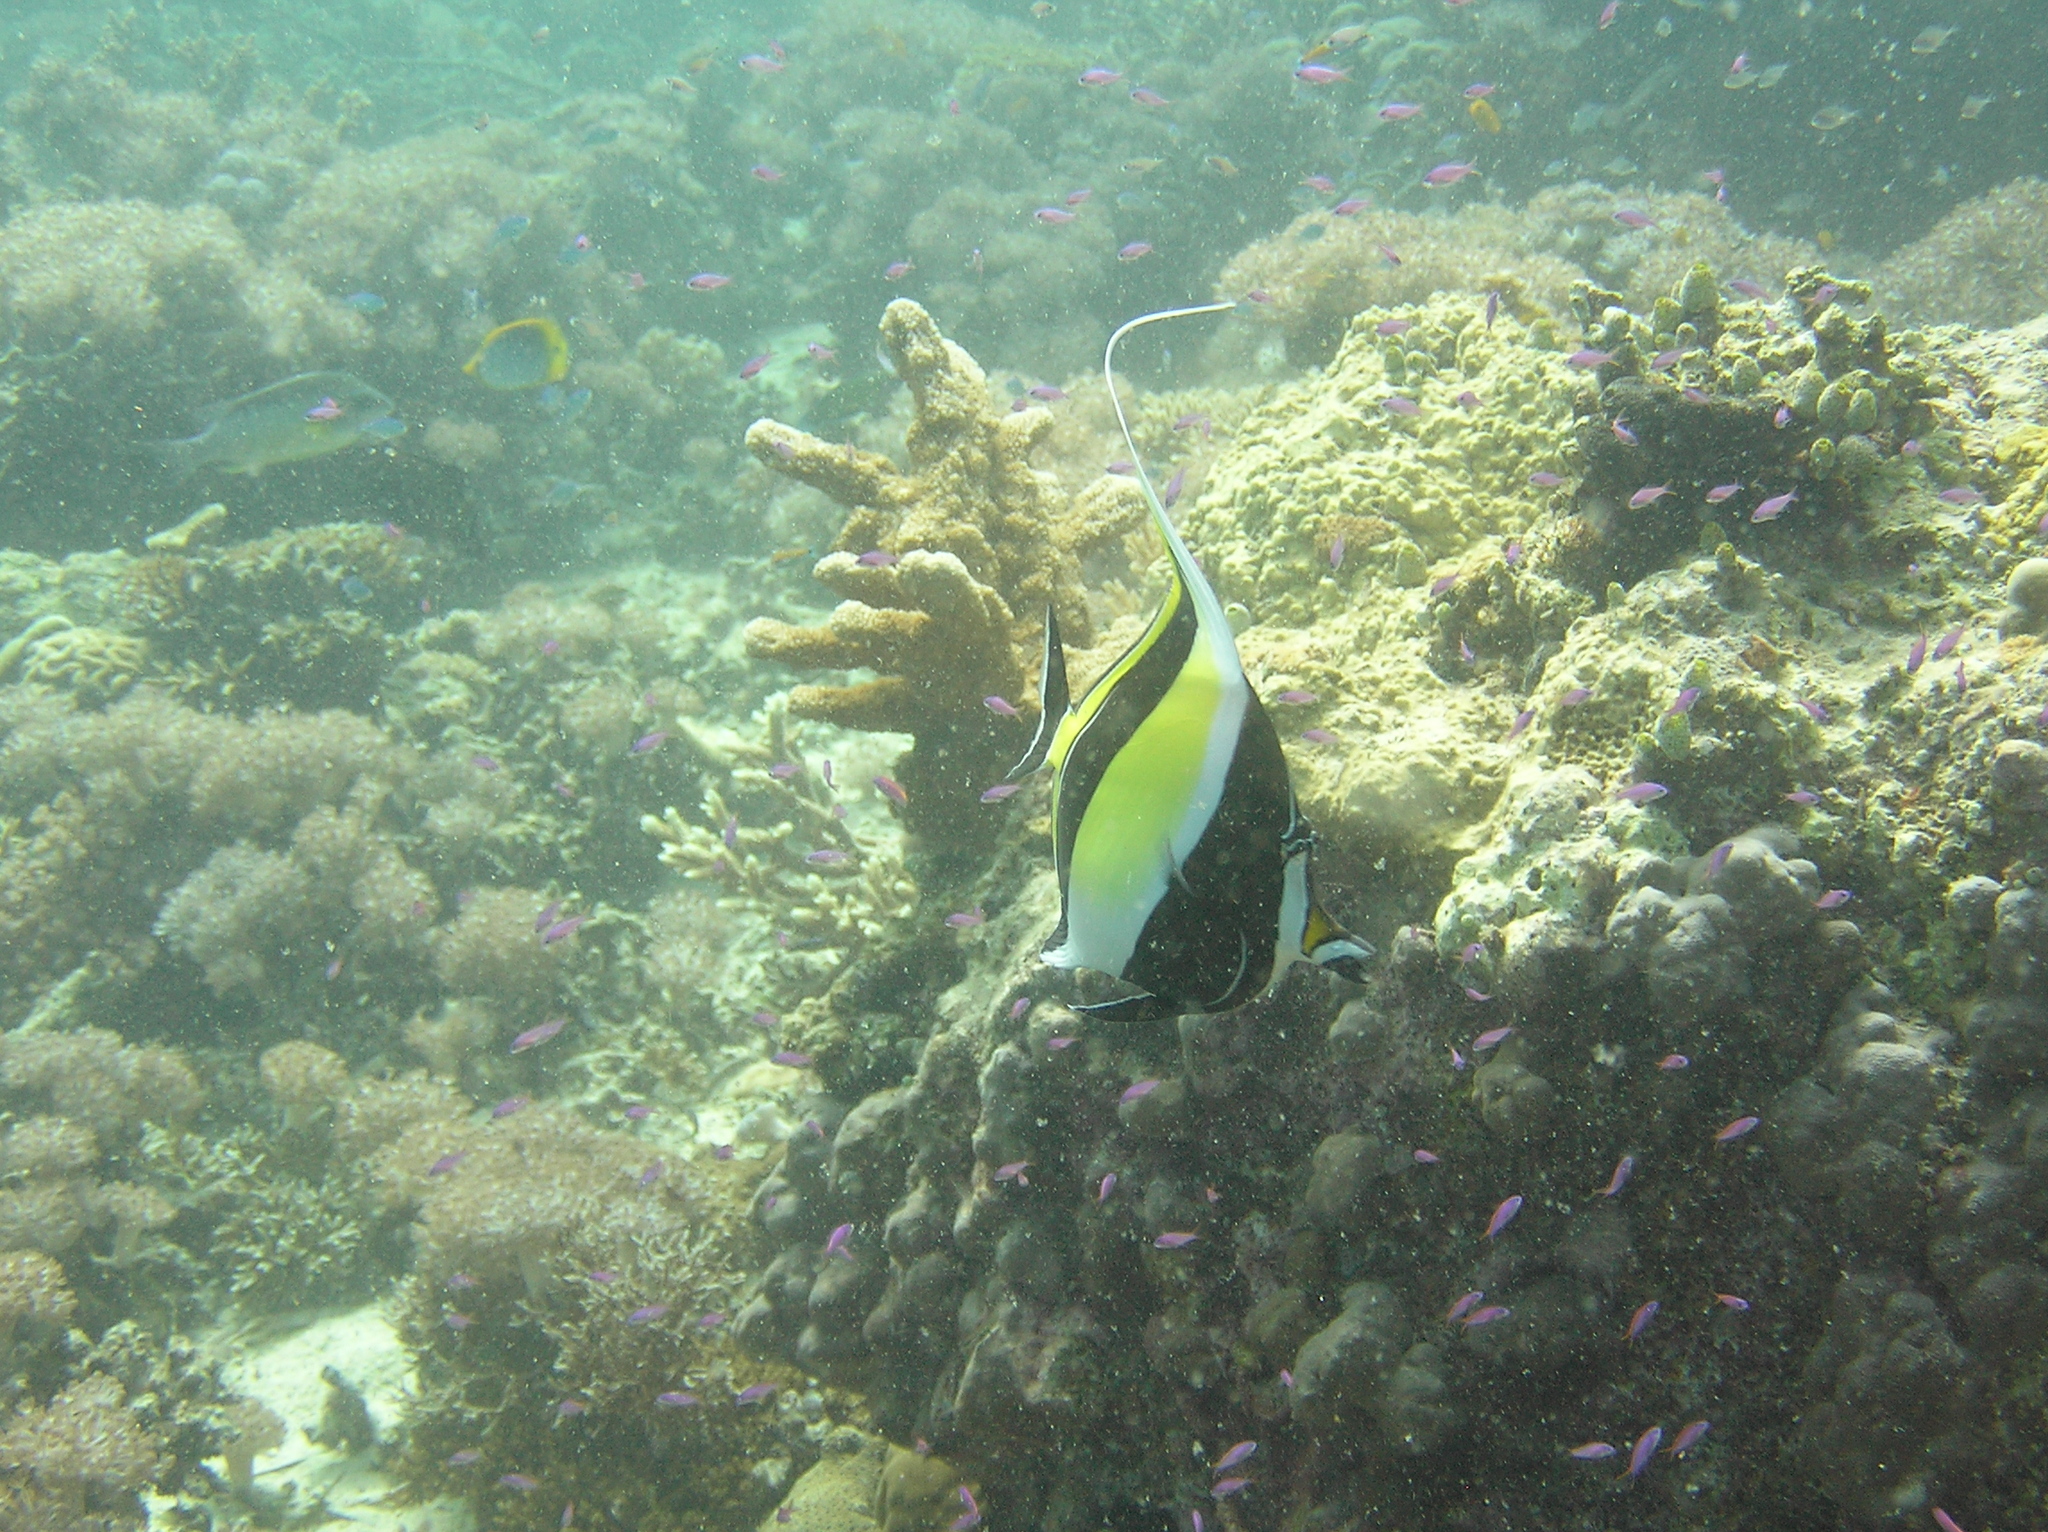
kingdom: Animalia
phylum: Chordata
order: Perciformes
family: Zanclidae
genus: Zanclus
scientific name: Zanclus cornutus
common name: Moorish idol
